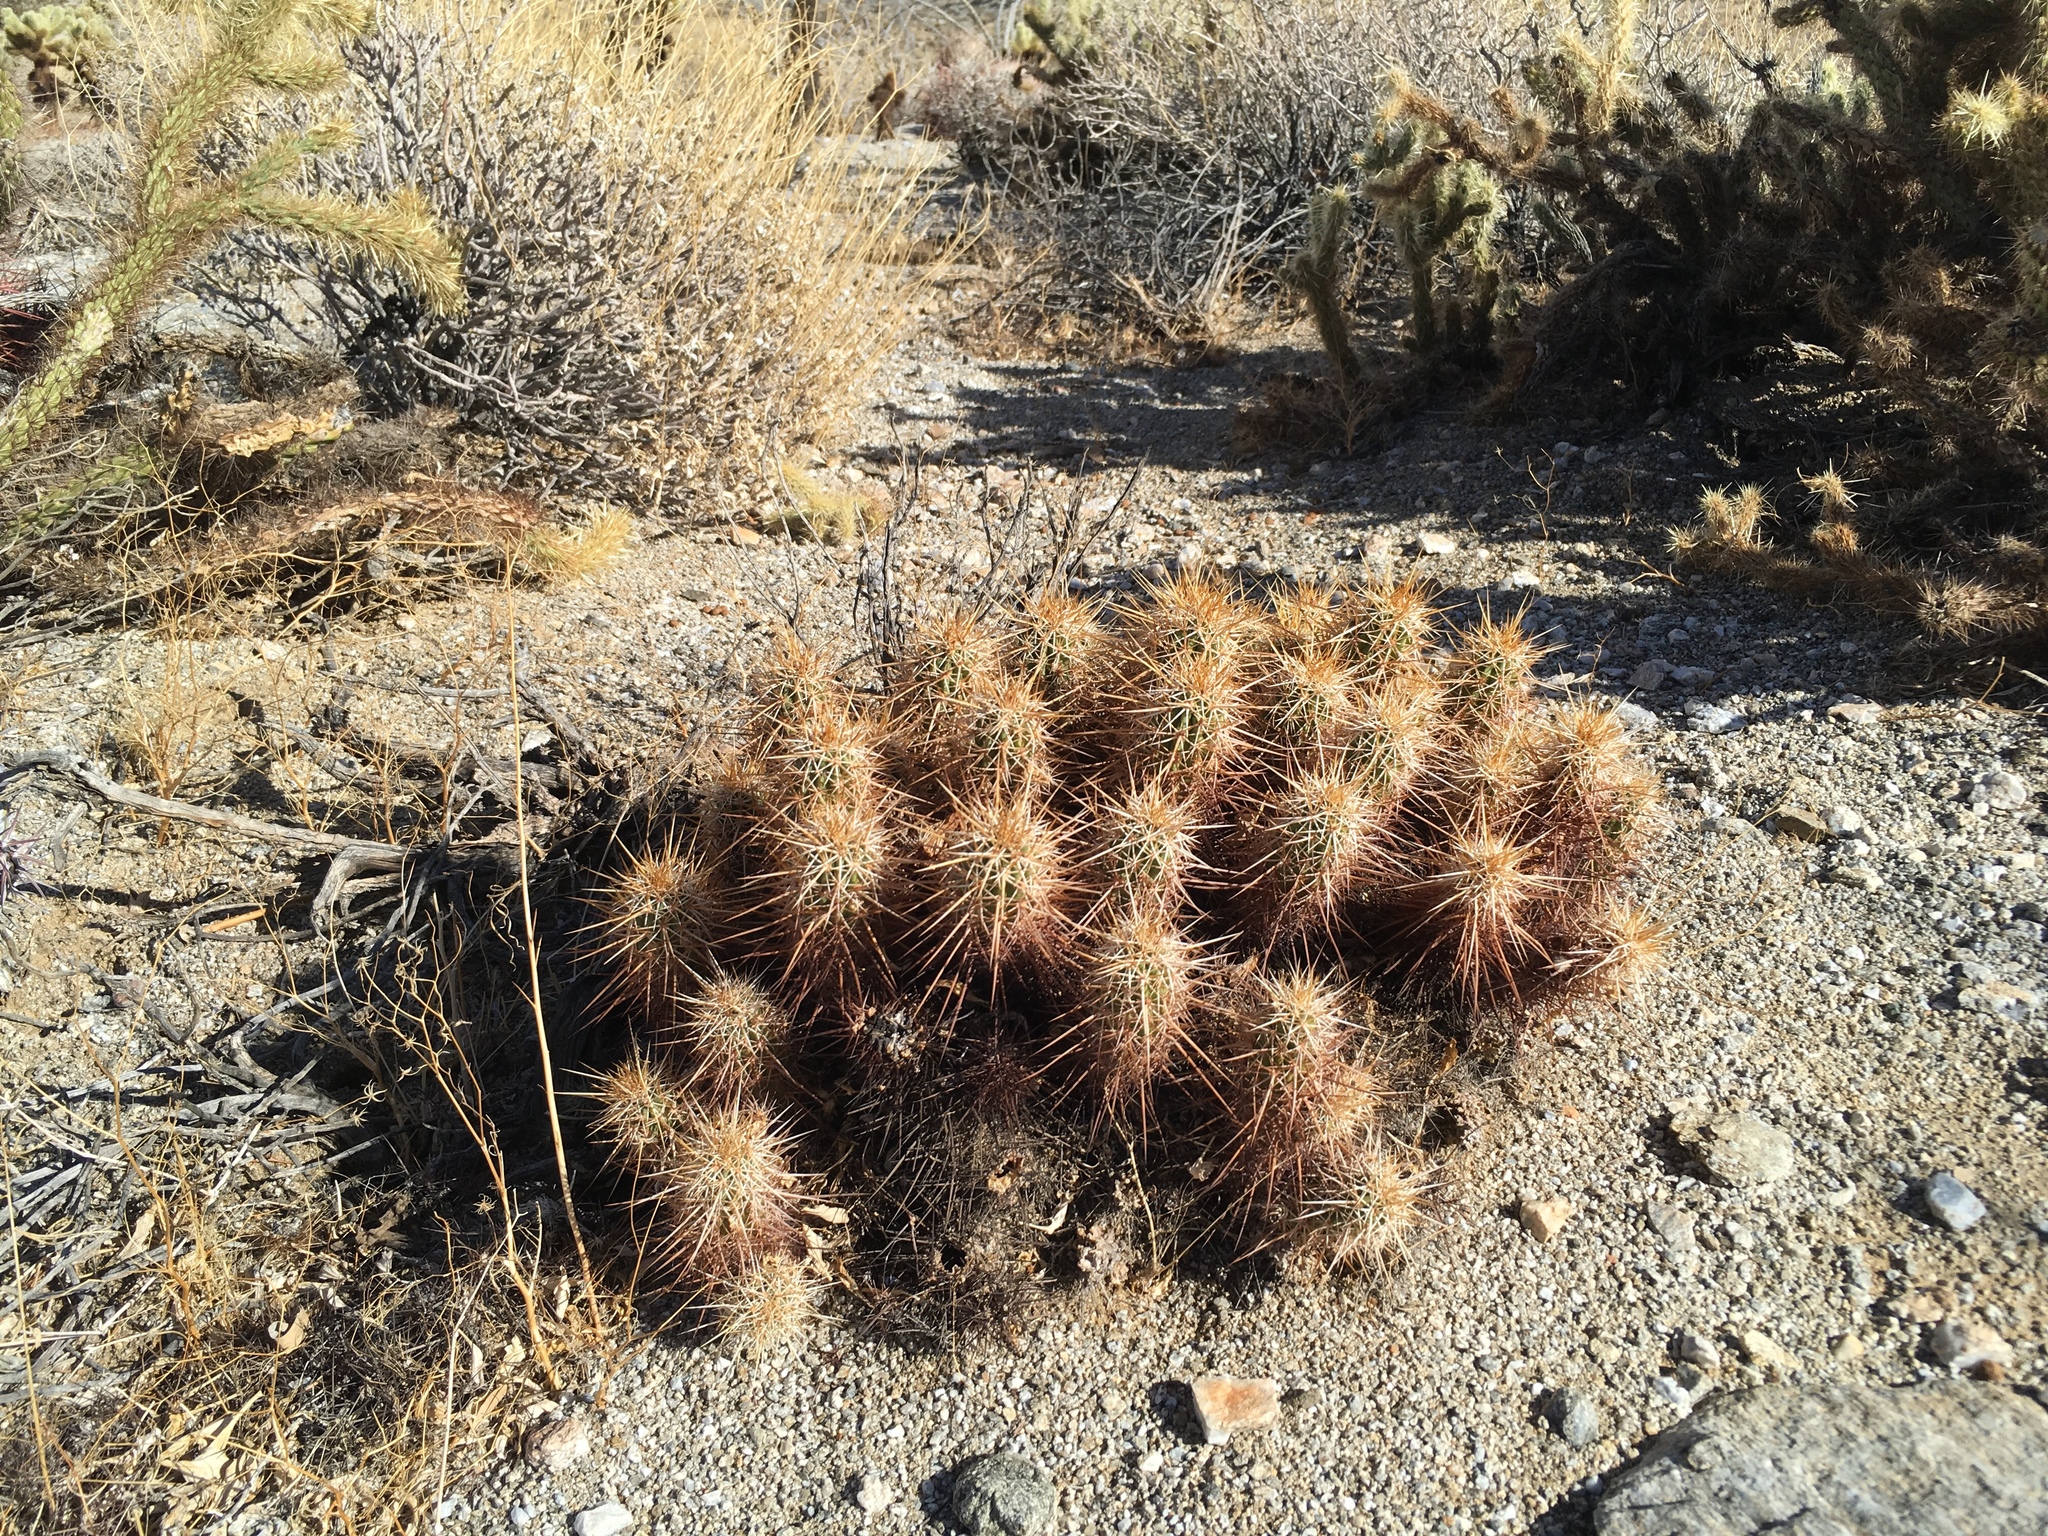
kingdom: Plantae
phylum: Tracheophyta
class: Magnoliopsida
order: Caryophyllales
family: Cactaceae
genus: Echinocereus
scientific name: Echinocereus engelmannii
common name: Engelmann's hedgehog cactus
